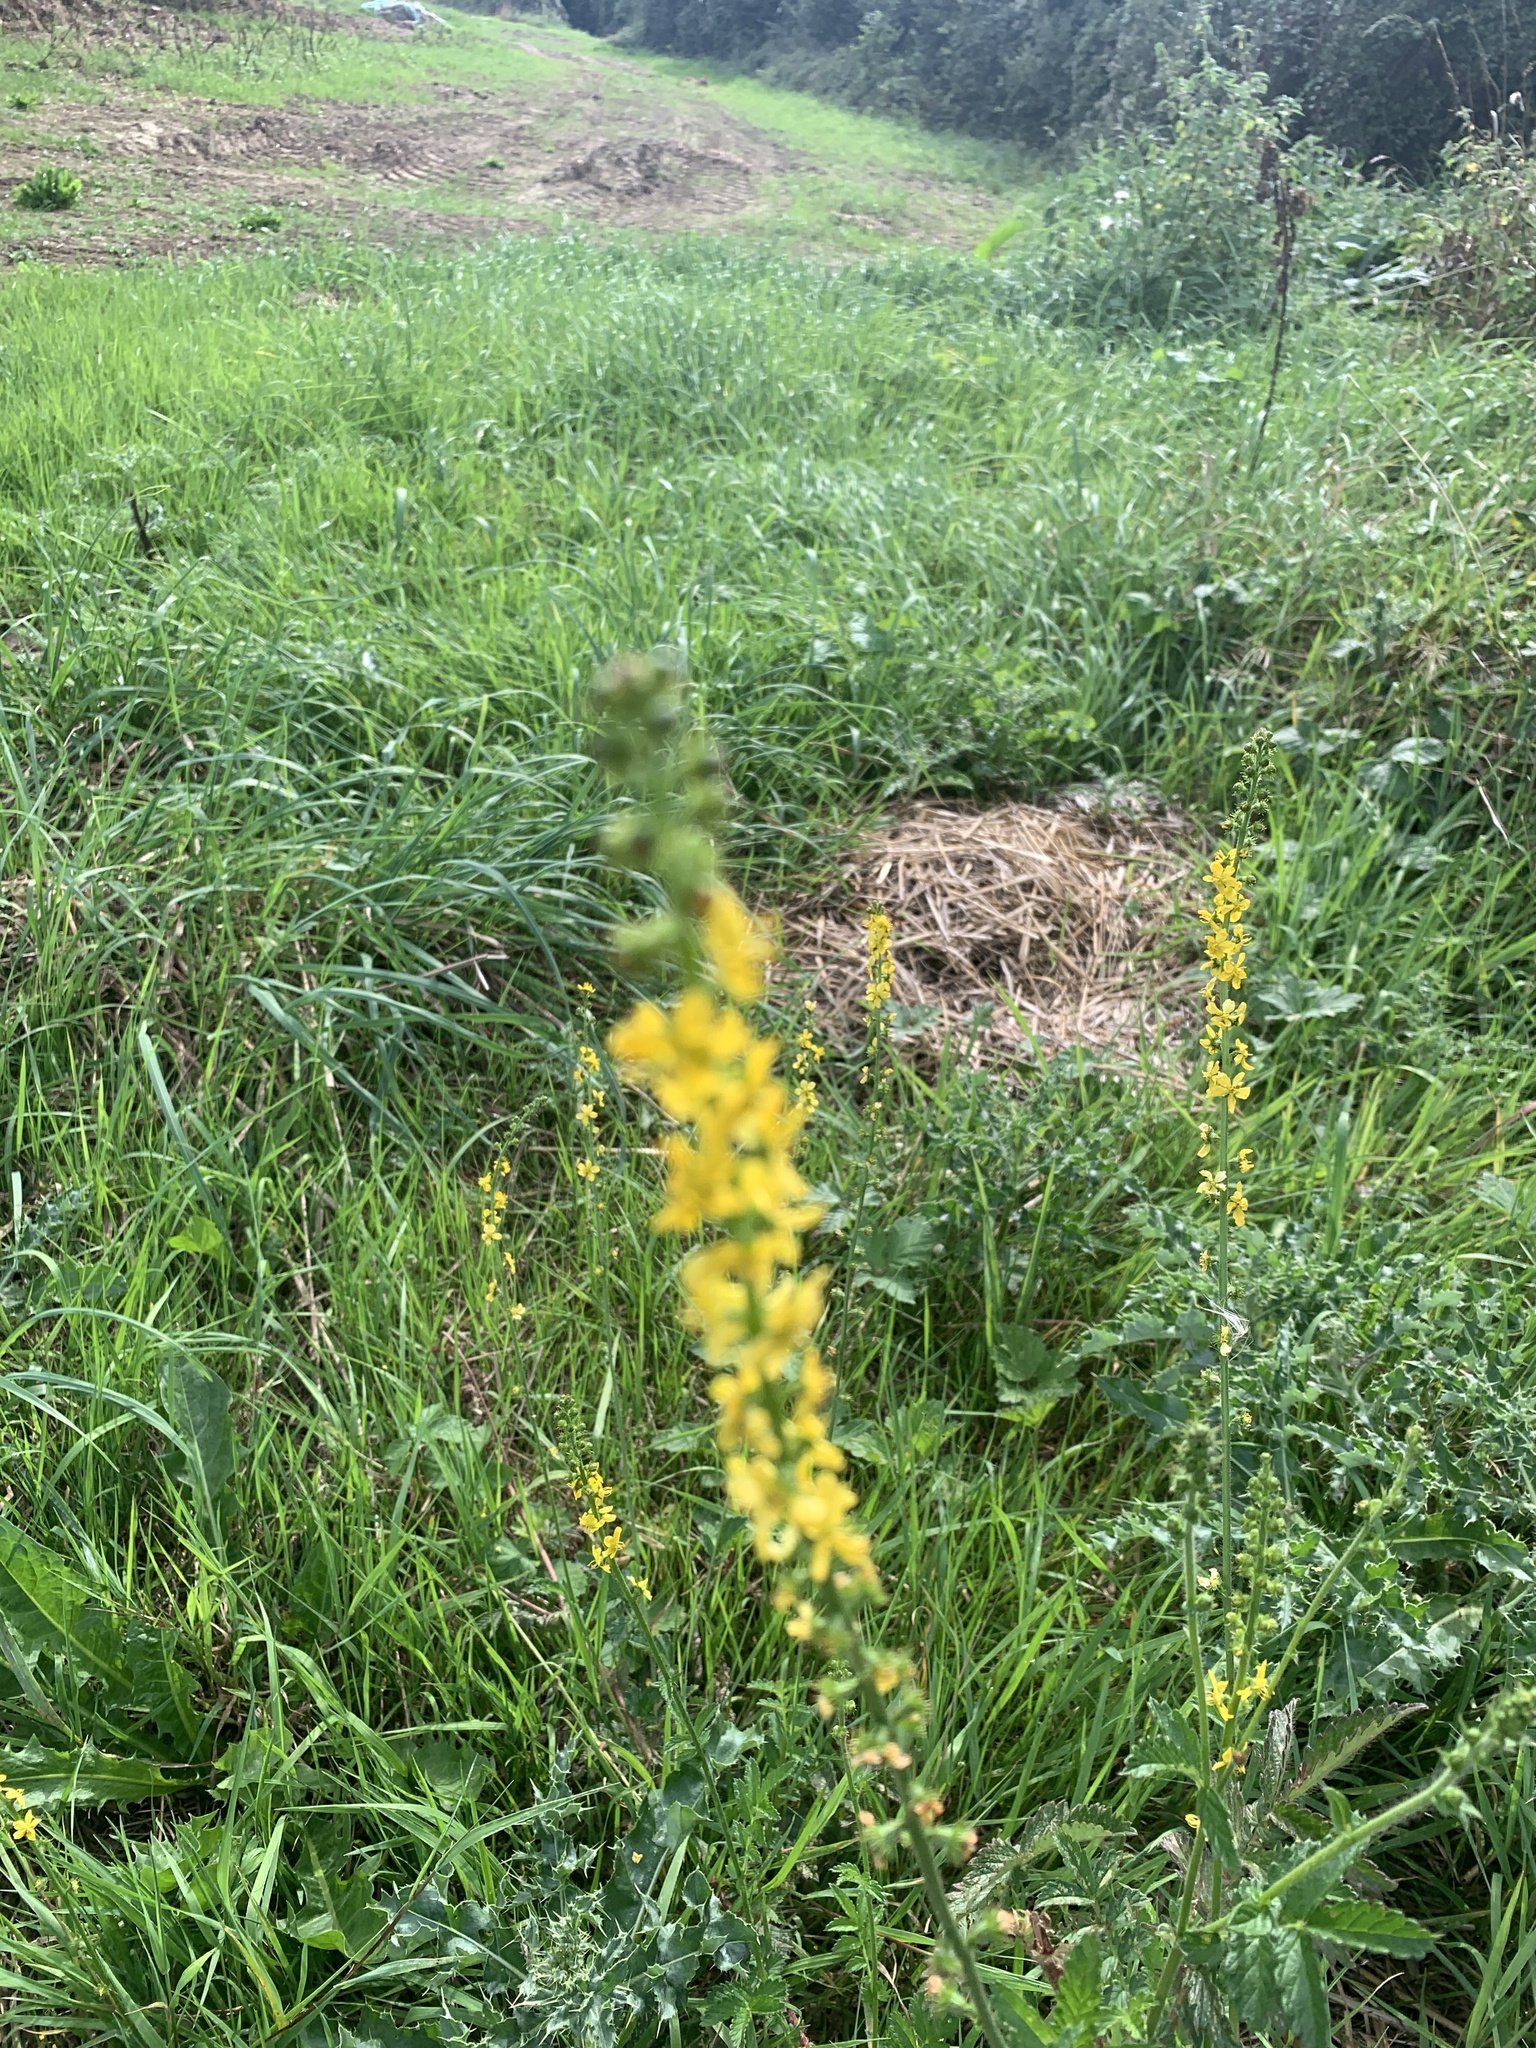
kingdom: Plantae
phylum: Tracheophyta
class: Magnoliopsida
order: Rosales
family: Rosaceae
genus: Agrimonia
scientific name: Agrimonia eupatoria
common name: Agrimony
